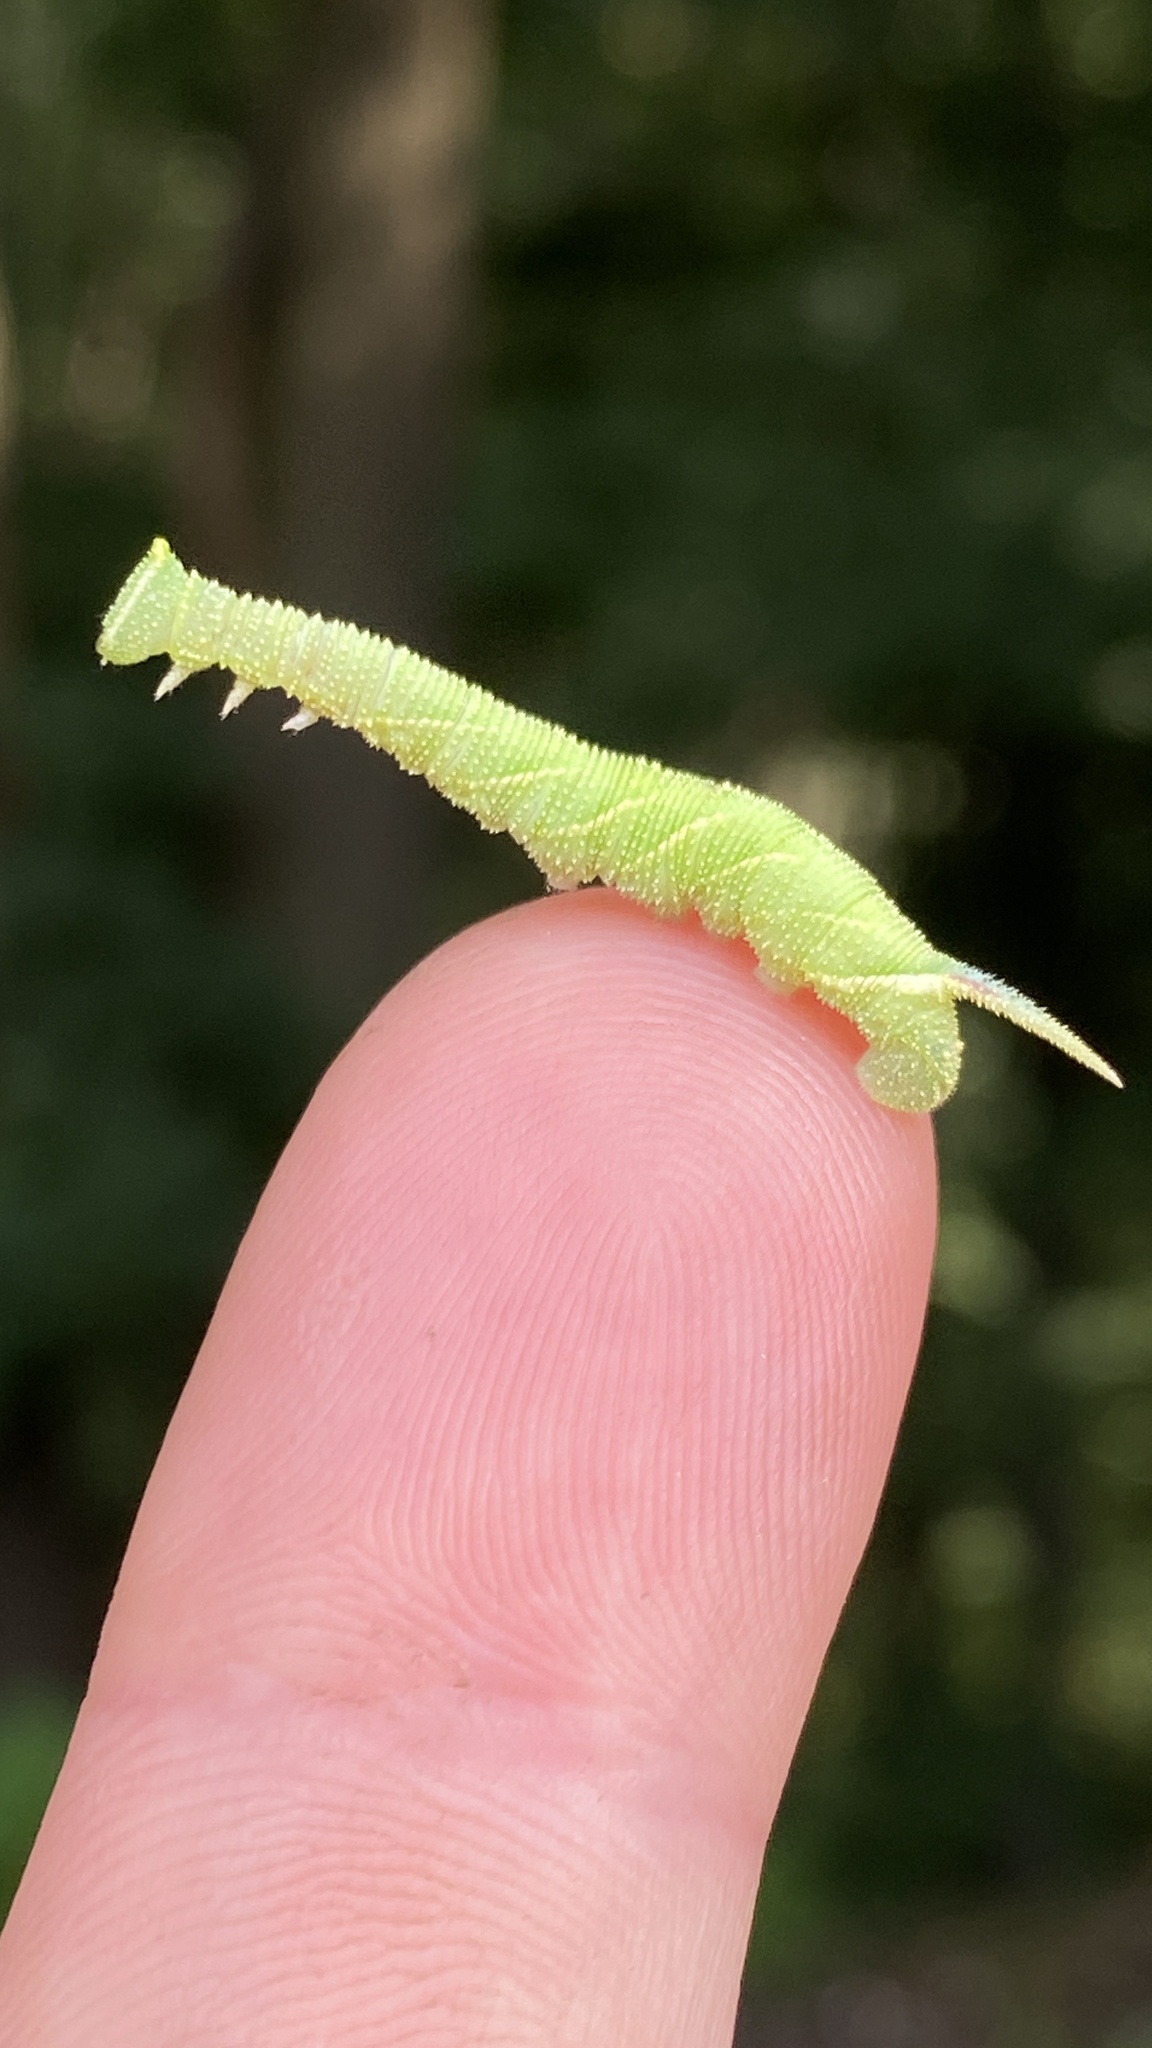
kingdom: Animalia
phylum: Arthropoda
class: Insecta
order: Lepidoptera
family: Sphingidae
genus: Mimas
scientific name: Mimas tiliae
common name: Lime hawk-moth
